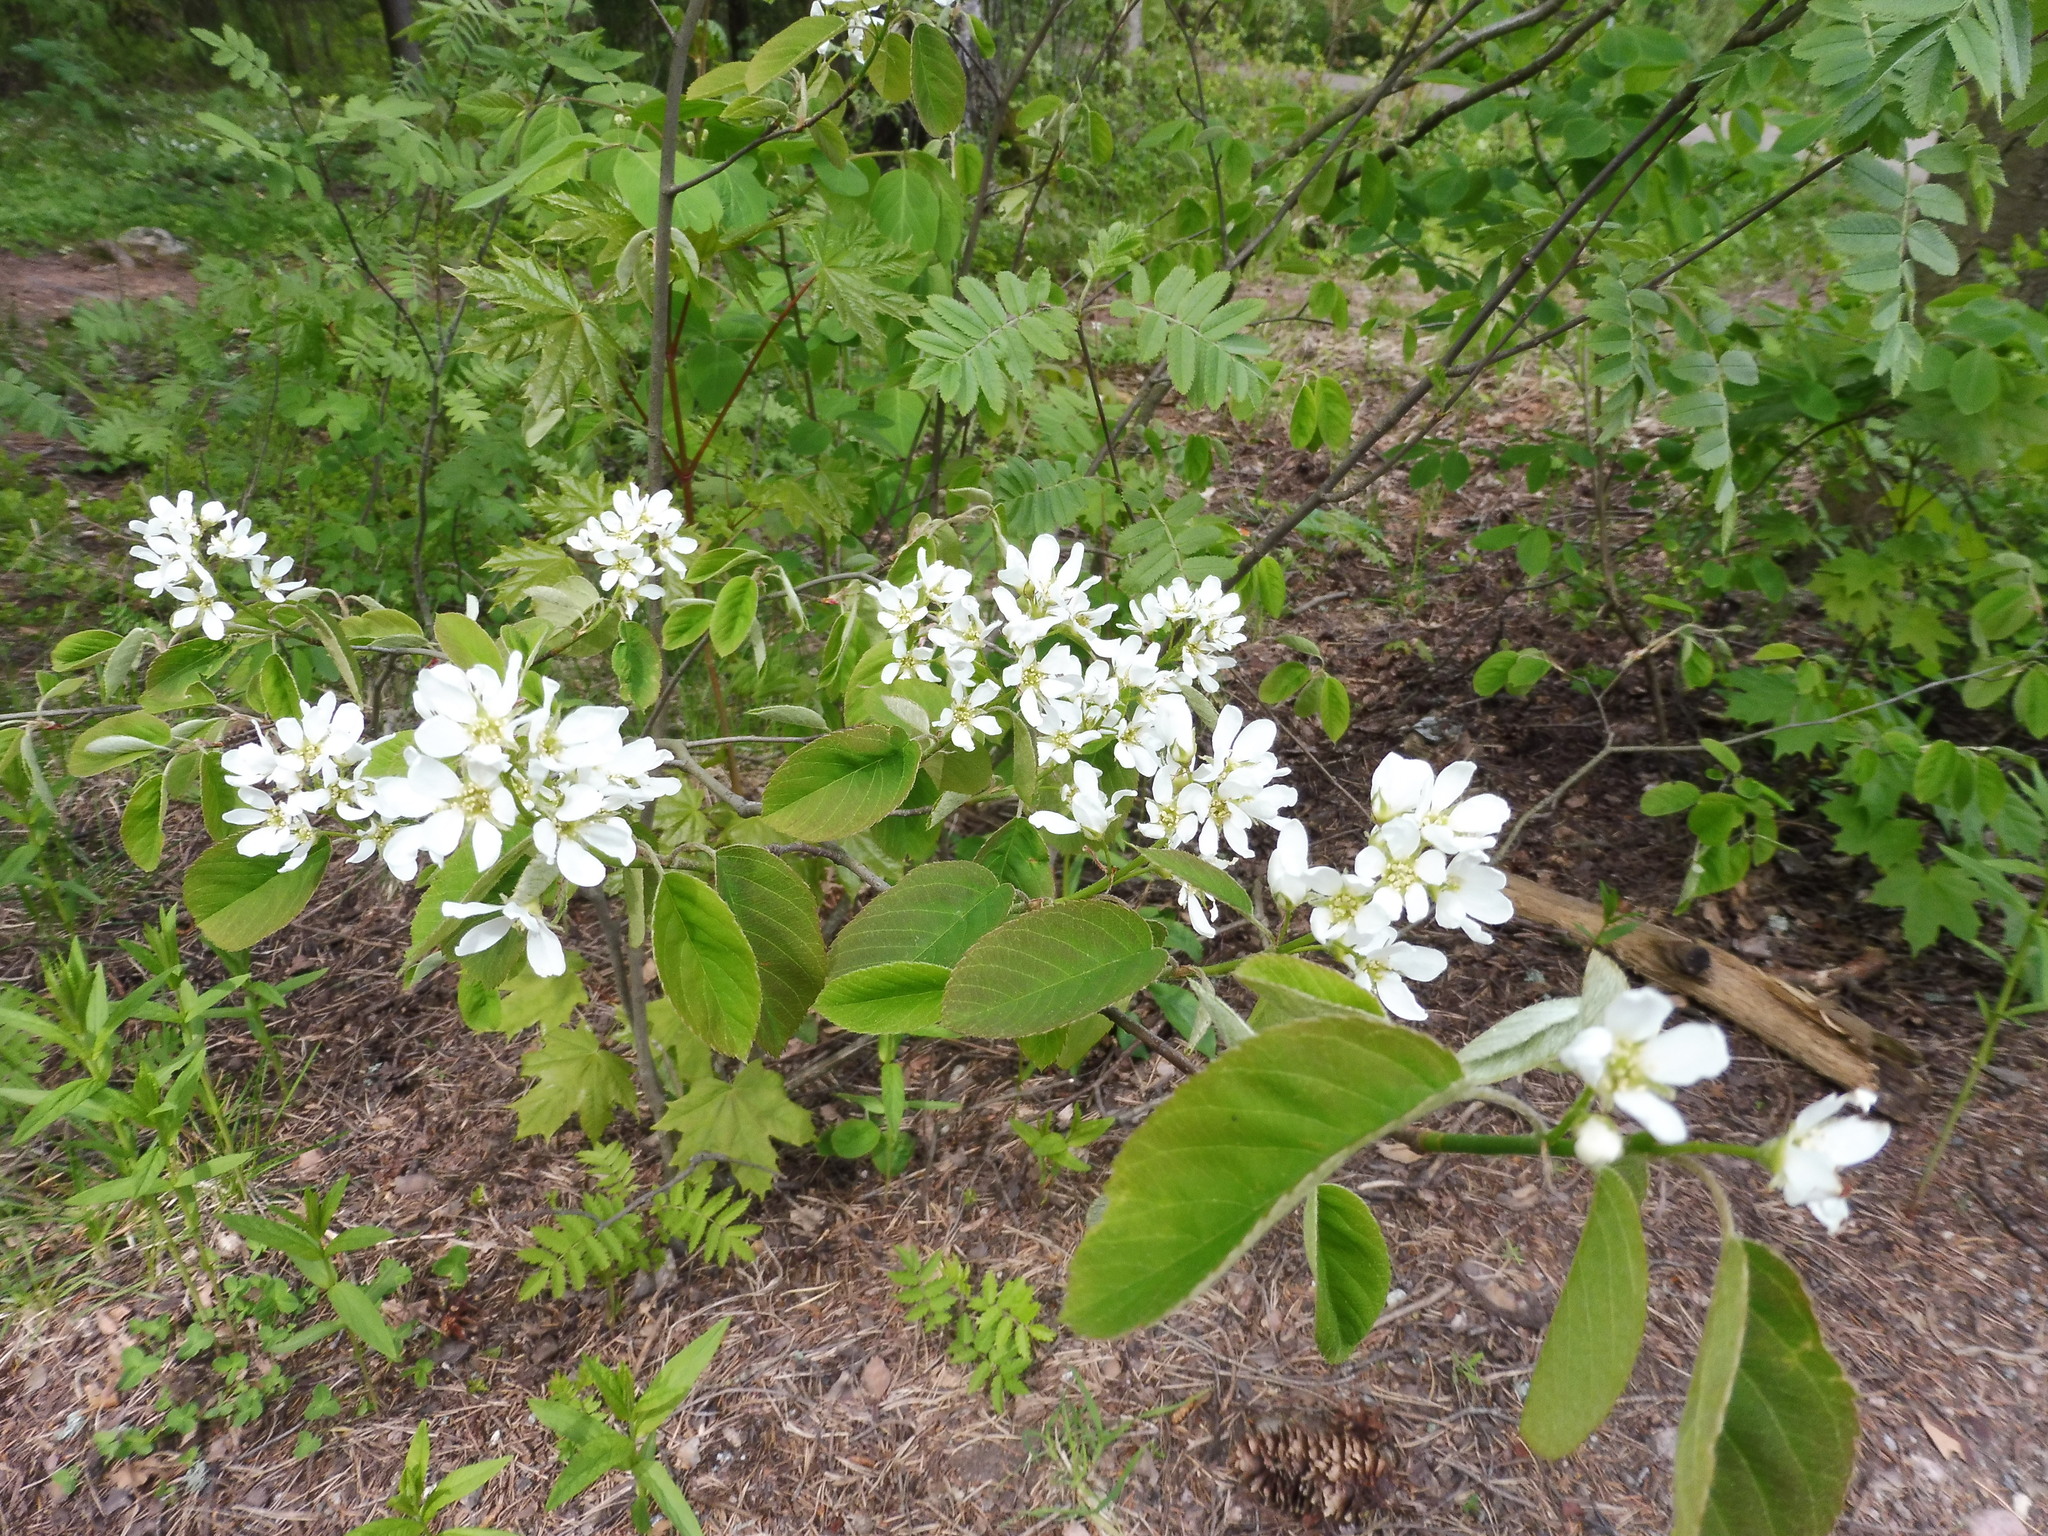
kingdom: Plantae
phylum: Tracheophyta
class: Magnoliopsida
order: Rosales
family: Rosaceae
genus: Amelanchier
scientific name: Amelanchier
